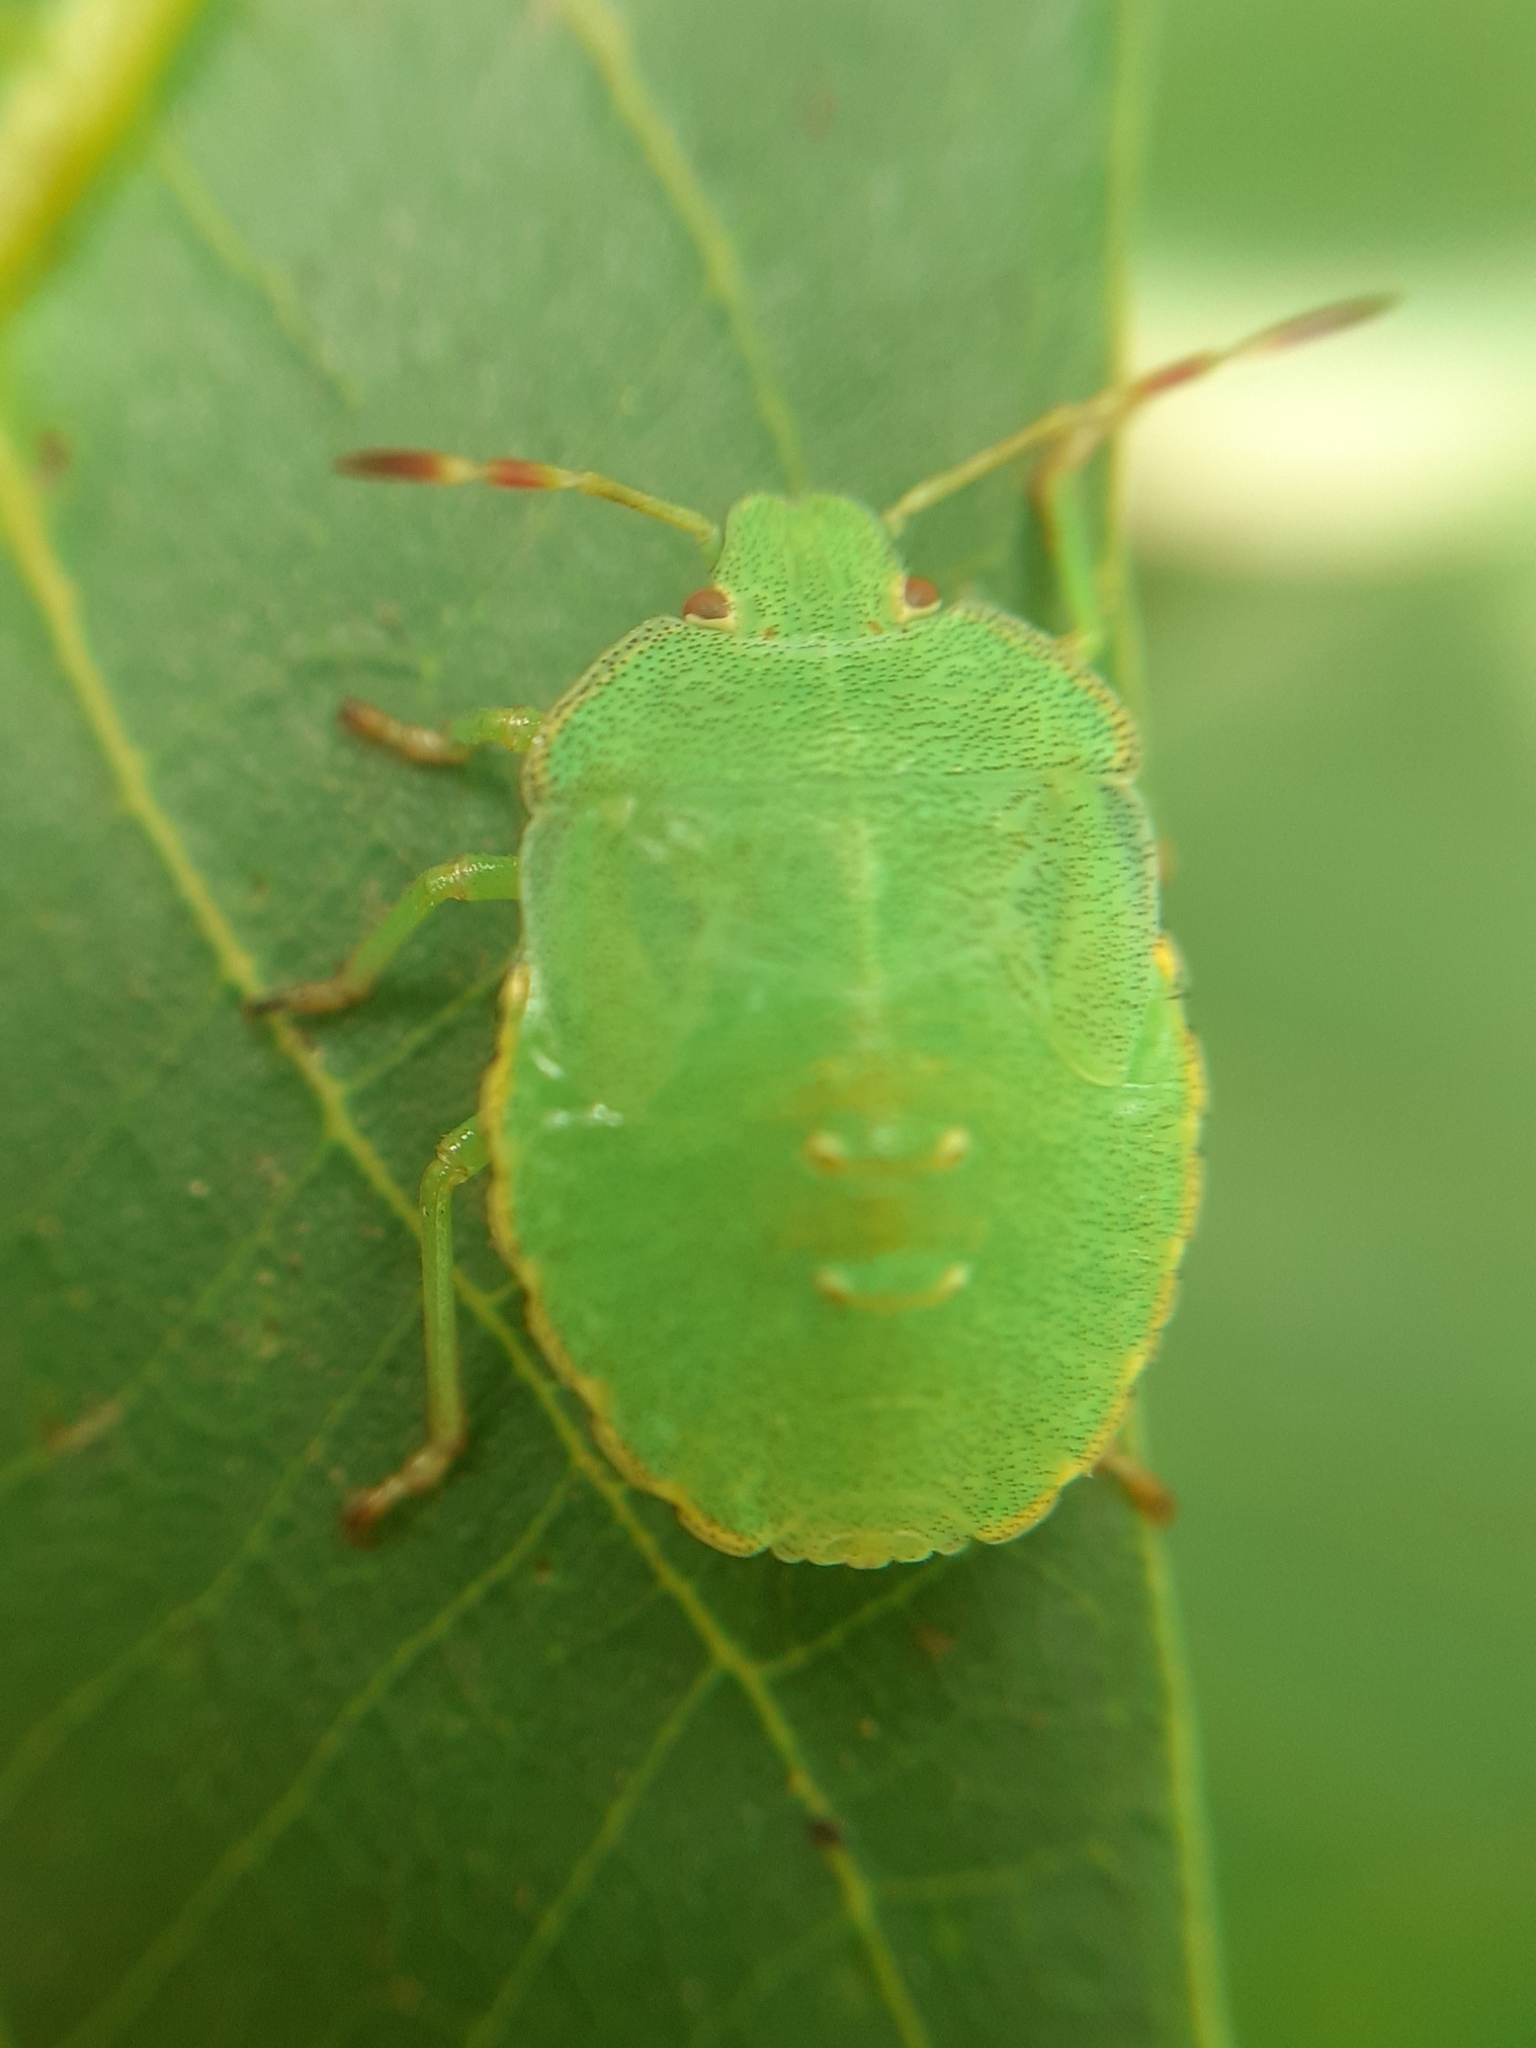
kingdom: Animalia
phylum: Arthropoda
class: Insecta
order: Hemiptera
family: Pentatomidae
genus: Palomena
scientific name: Palomena prasina
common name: Green shieldbug
